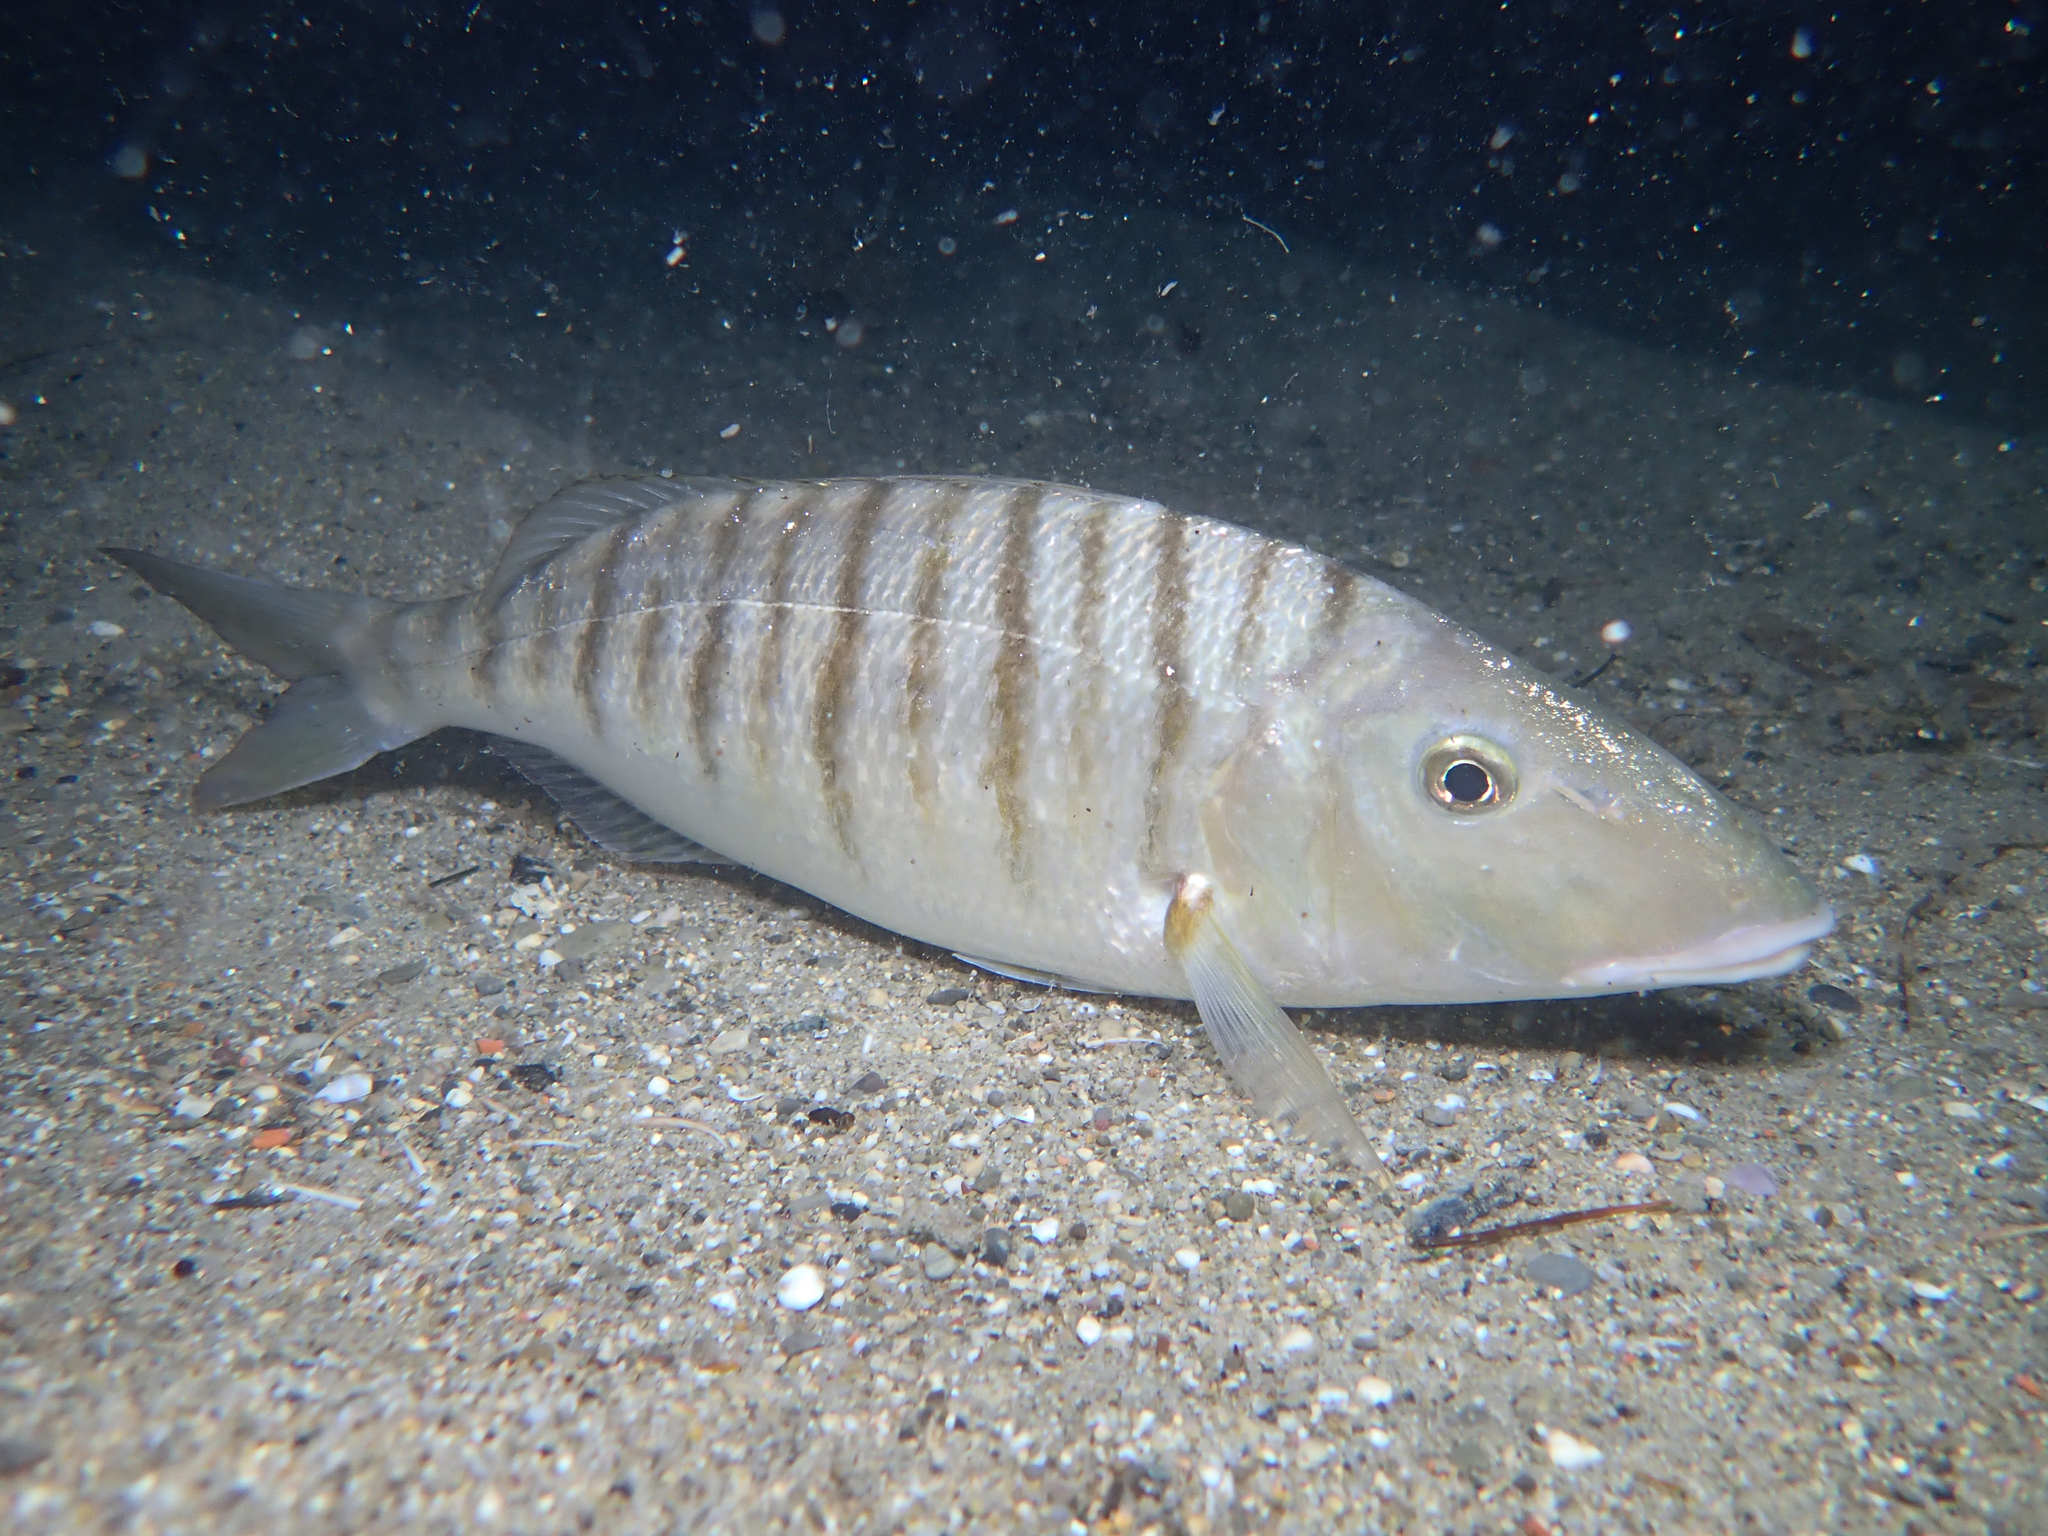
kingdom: Animalia
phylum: Chordata
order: Perciformes
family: Sparidae
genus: Lithognathus
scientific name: Lithognathus mormyrus
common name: Sand steenbras
